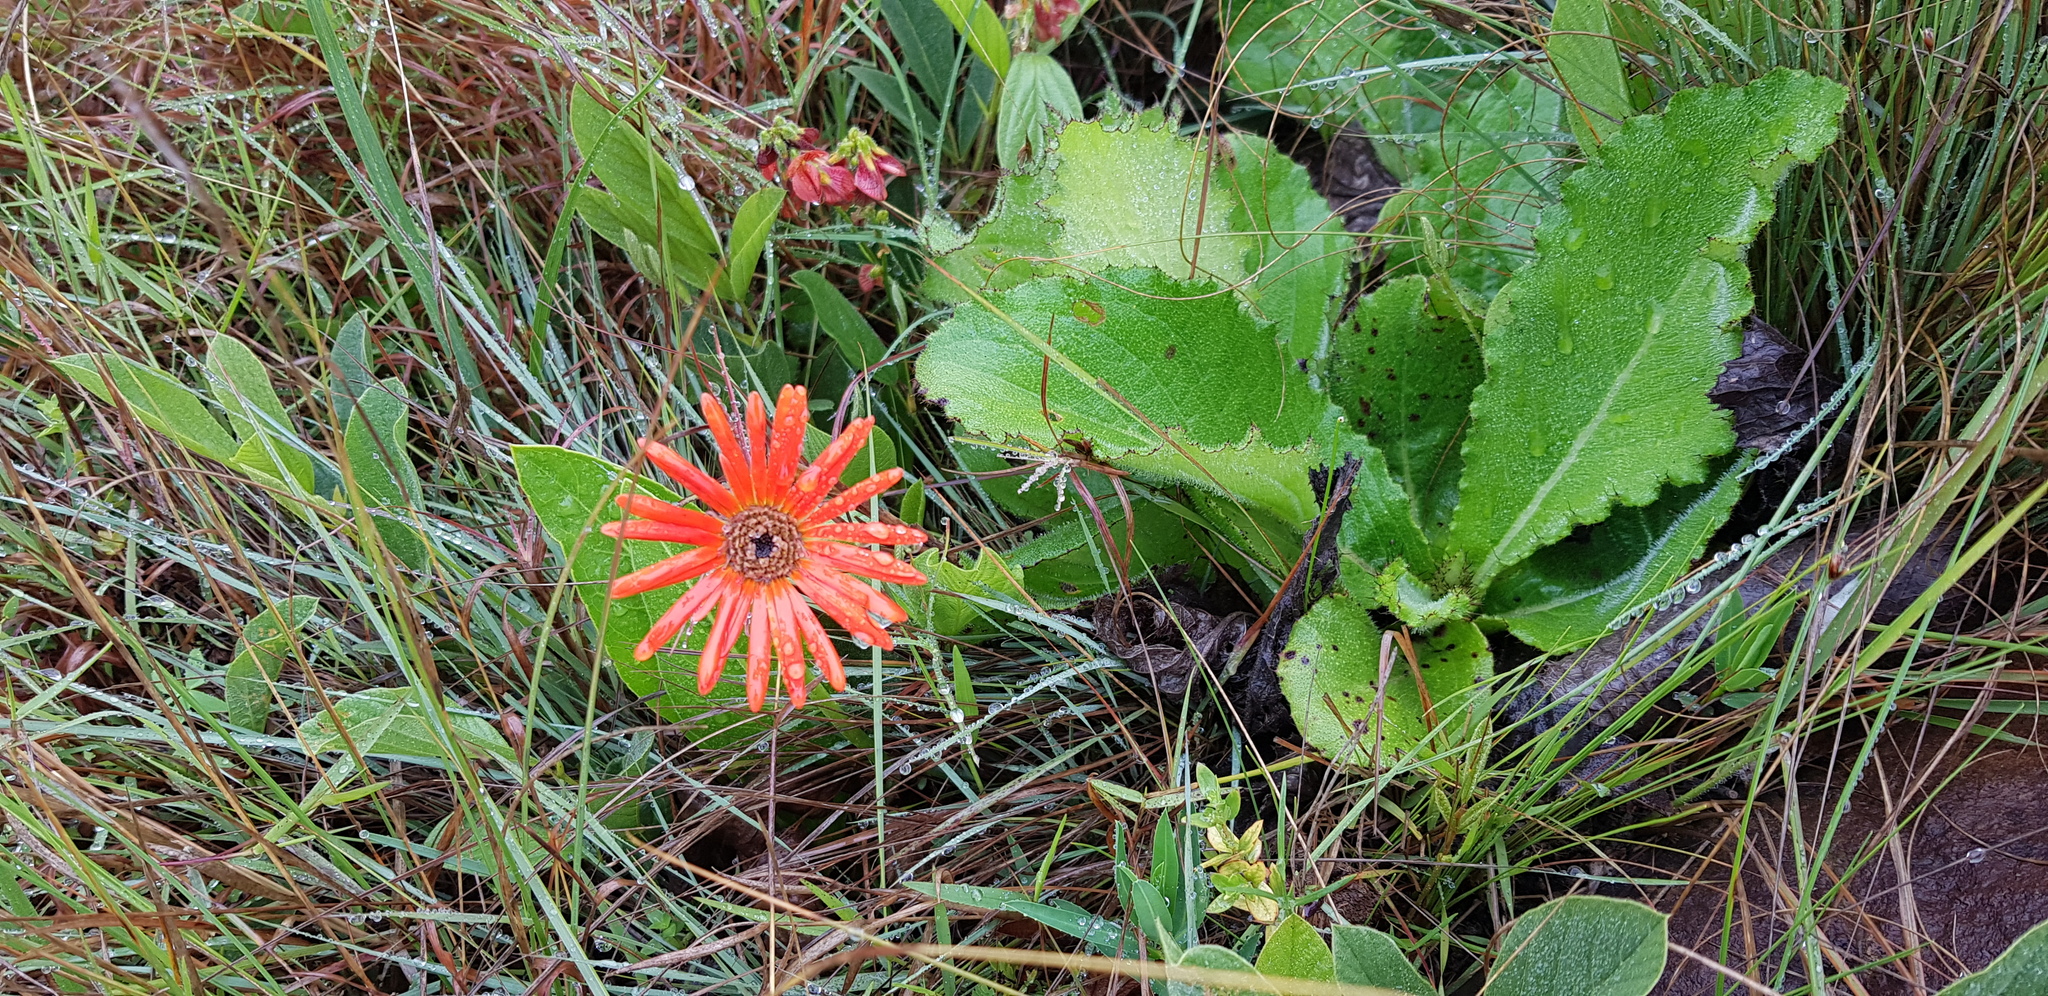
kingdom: Plantae
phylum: Tracheophyta
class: Magnoliopsida
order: Asterales
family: Asteraceae
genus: Gerbera
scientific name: Gerbera aurantiaca
